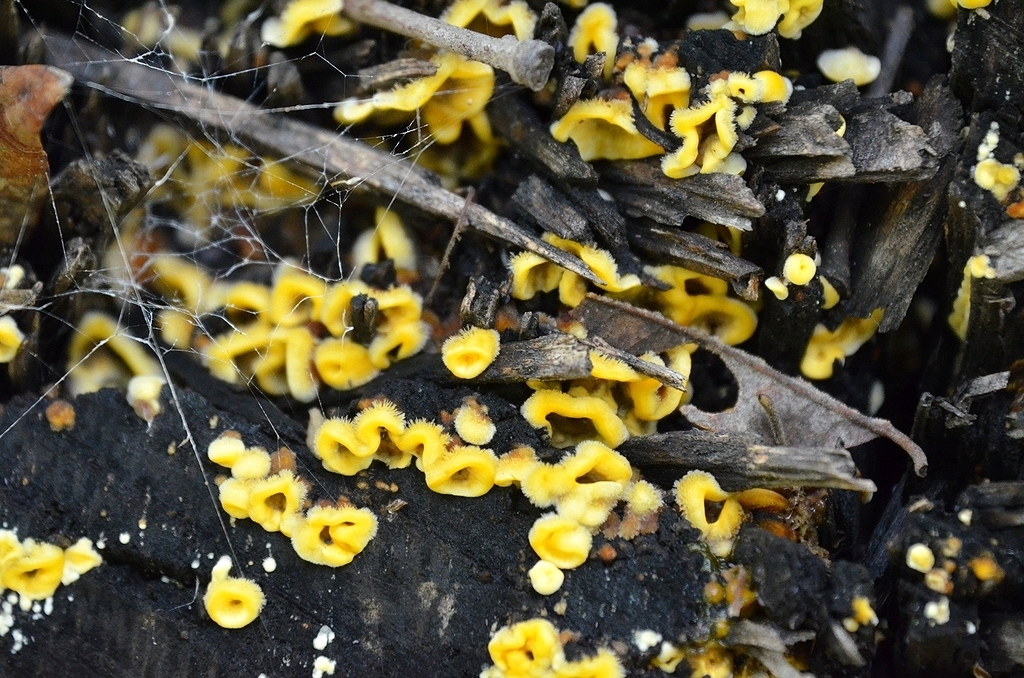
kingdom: Fungi
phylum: Basidiomycota
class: Agaricomycetes
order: Russulales
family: Stereaceae
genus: Stereum
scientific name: Stereum hirsutum
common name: Hairy curtain crust
